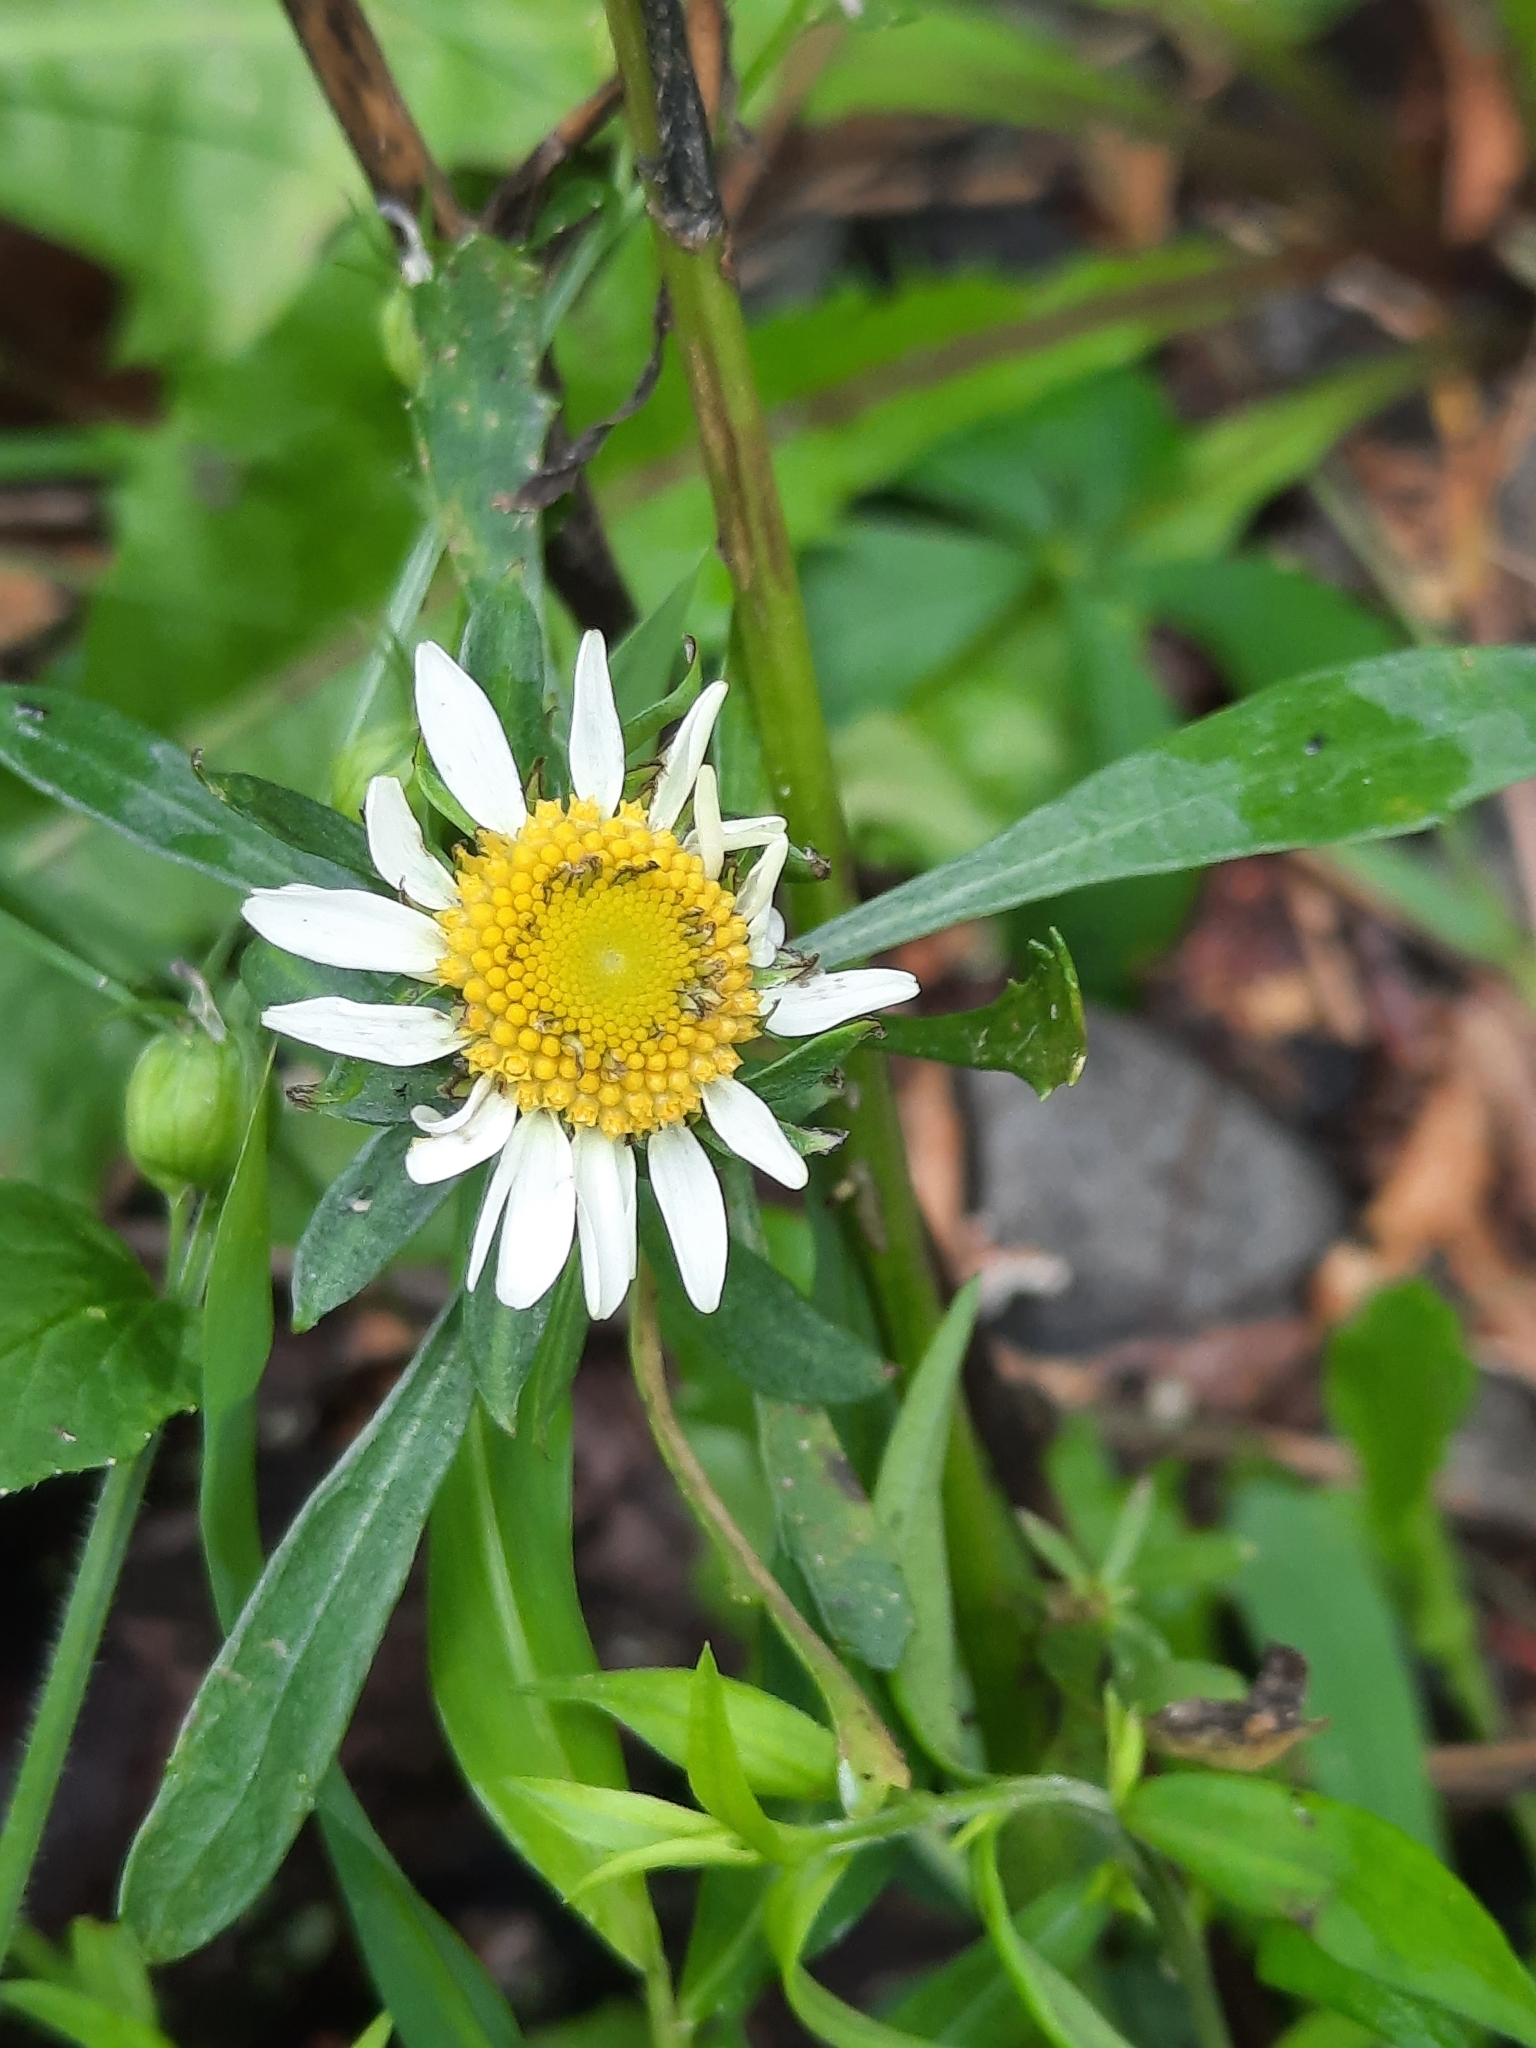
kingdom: Plantae
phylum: Tracheophyta
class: Magnoliopsida
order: Asterales
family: Asteraceae
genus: Leucanthemum
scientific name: Leucanthemum vulgare
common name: Oxeye daisy
